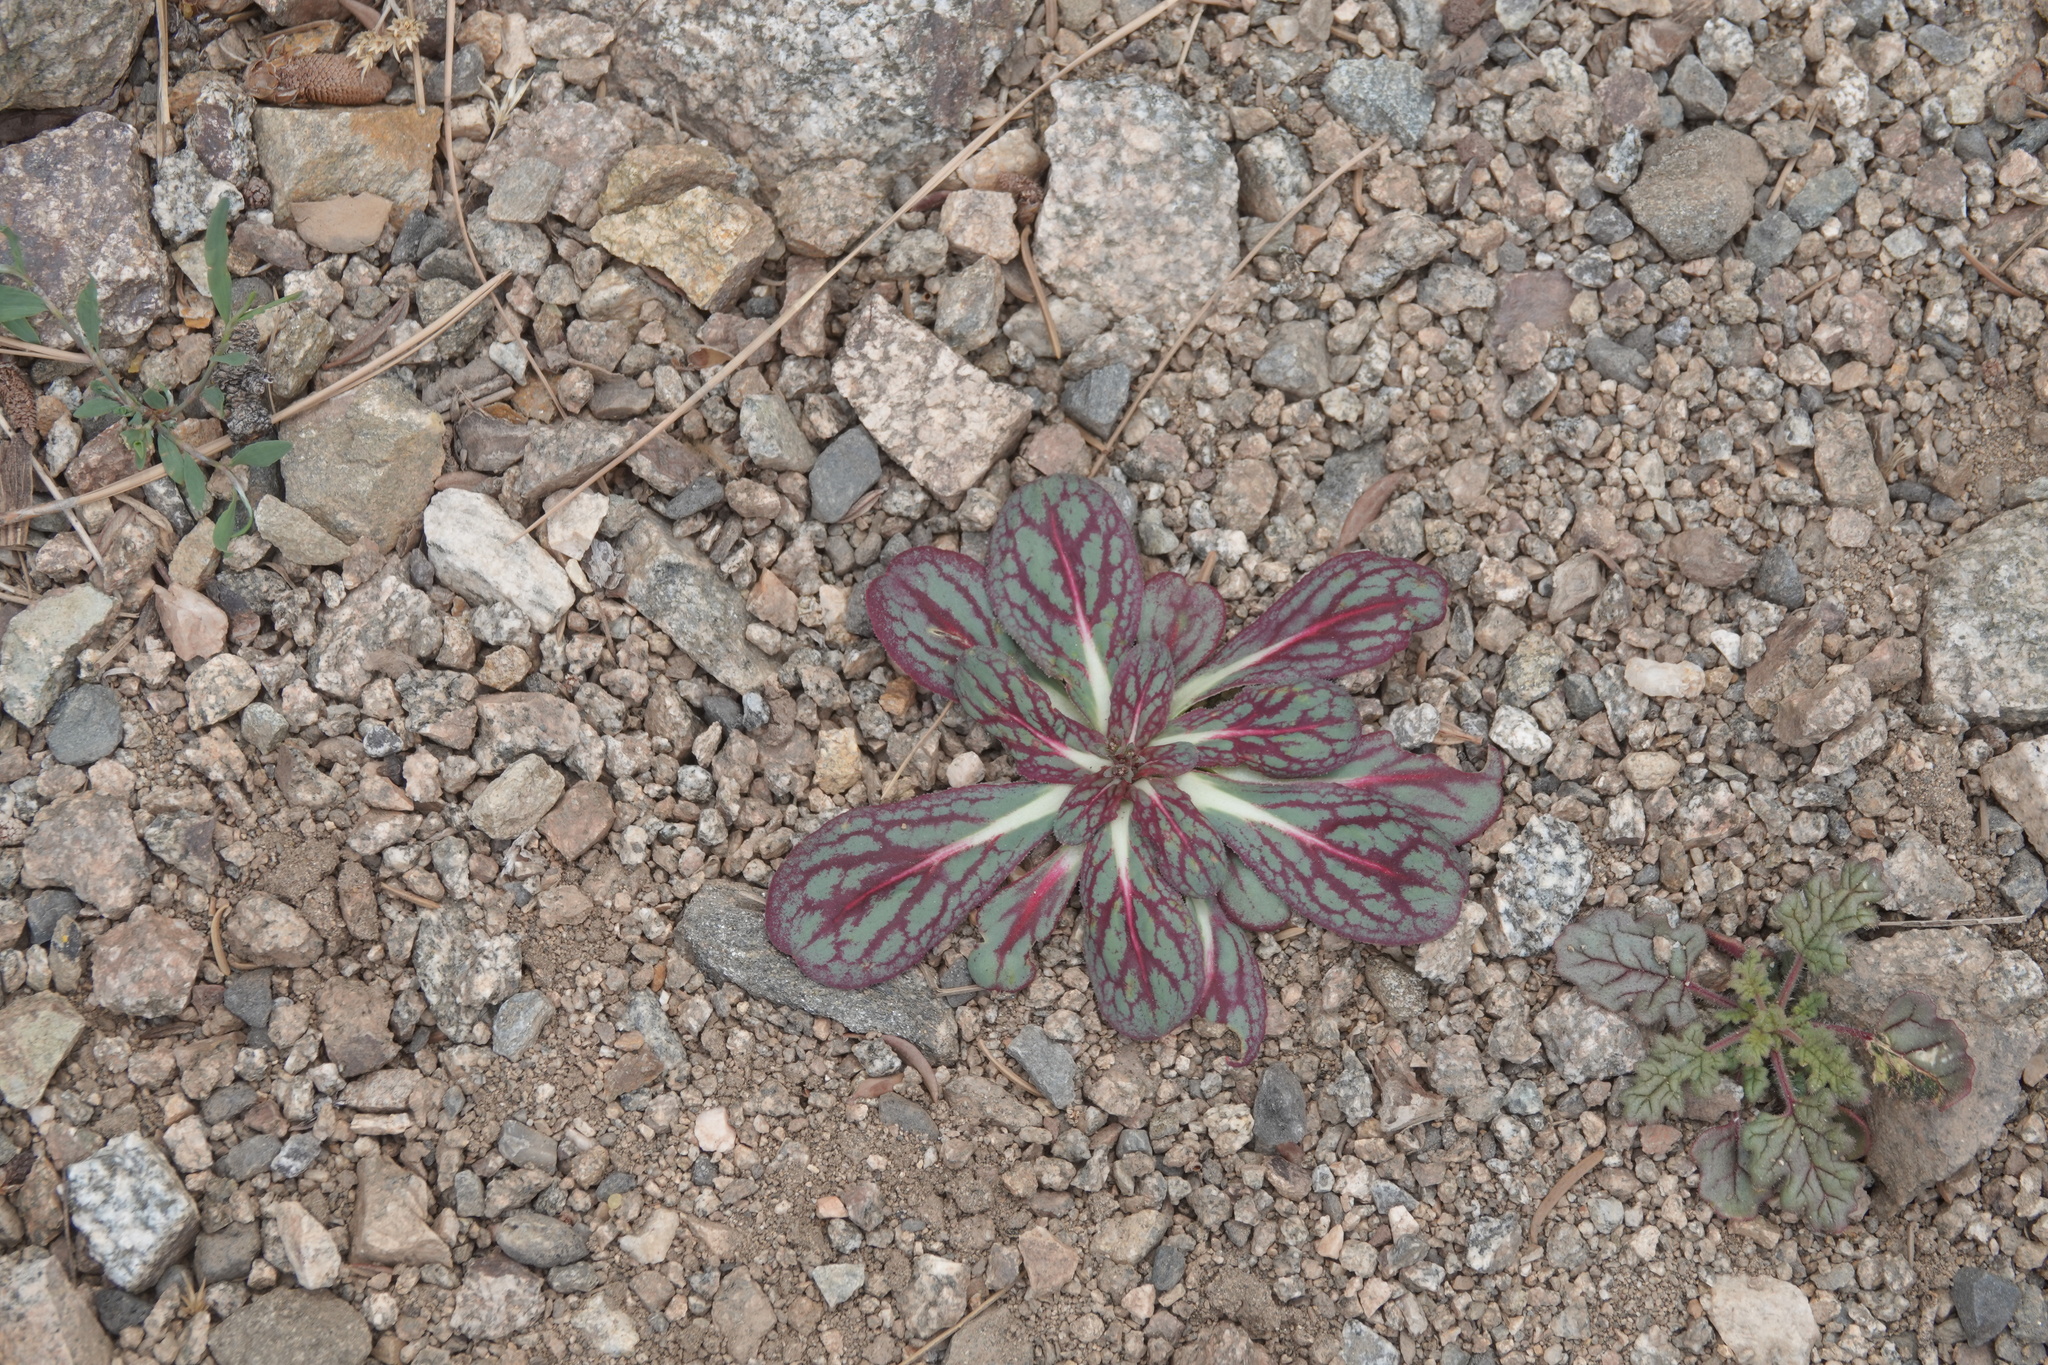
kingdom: Plantae
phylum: Tracheophyta
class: Magnoliopsida
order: Caryophyllales
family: Polygonaceae
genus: Acanthoscyphus
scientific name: Acanthoscyphus parishii
